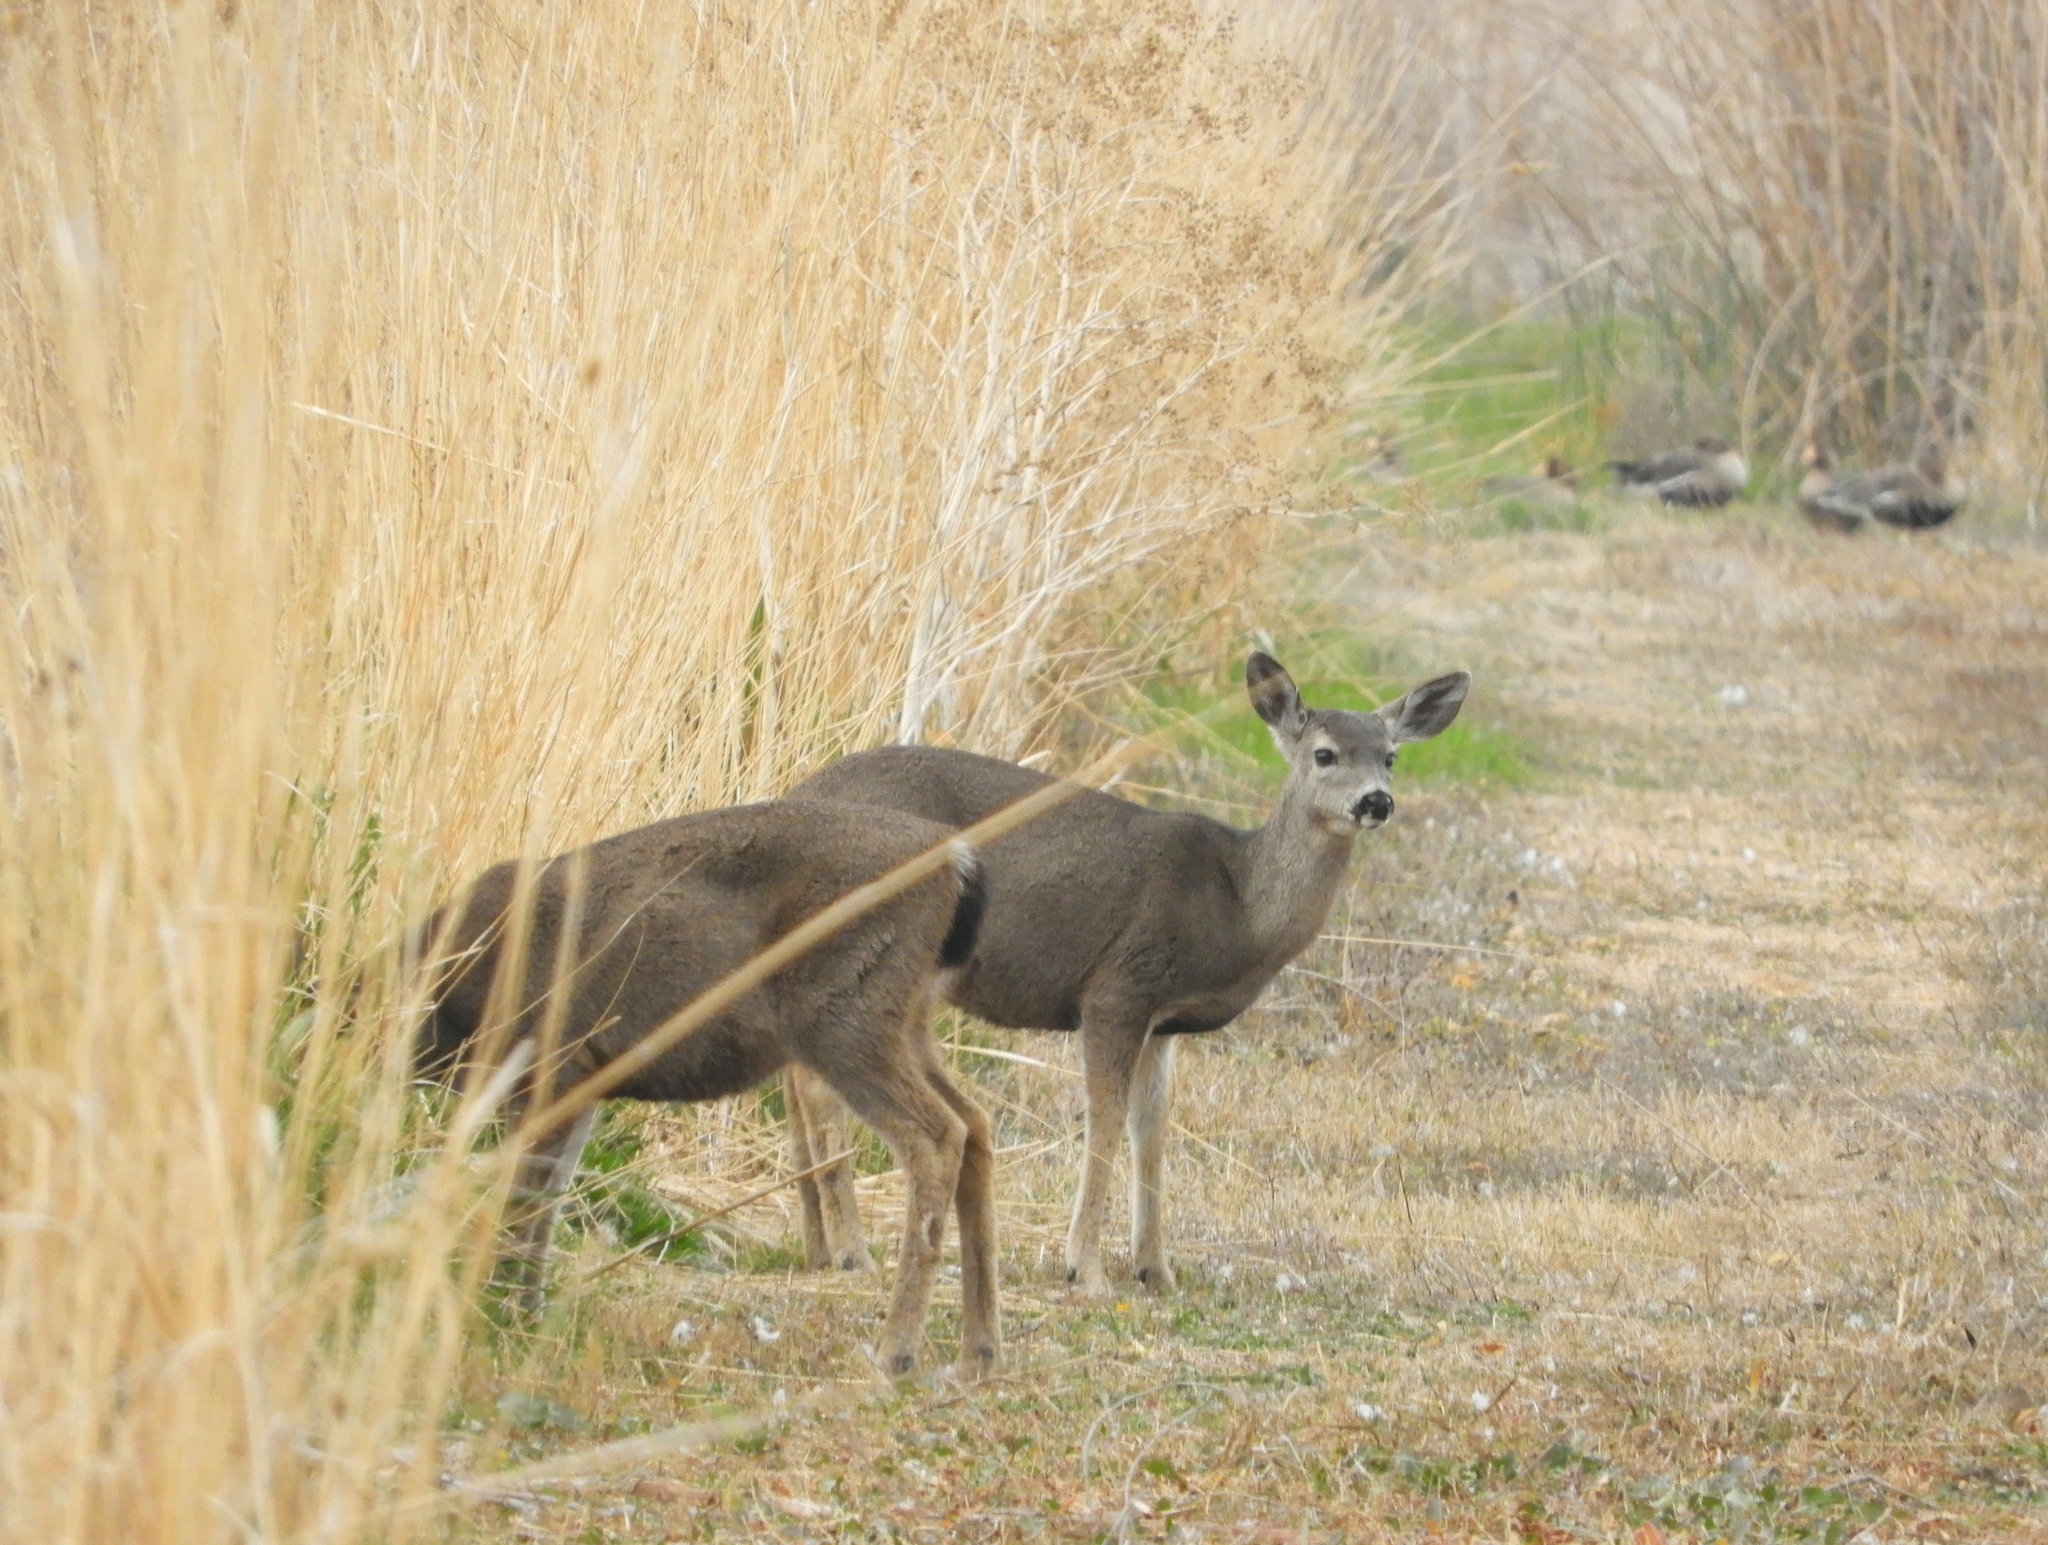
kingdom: Animalia
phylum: Chordata
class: Mammalia
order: Artiodactyla
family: Cervidae
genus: Odocoileus
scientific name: Odocoileus hemionus
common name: Mule deer
